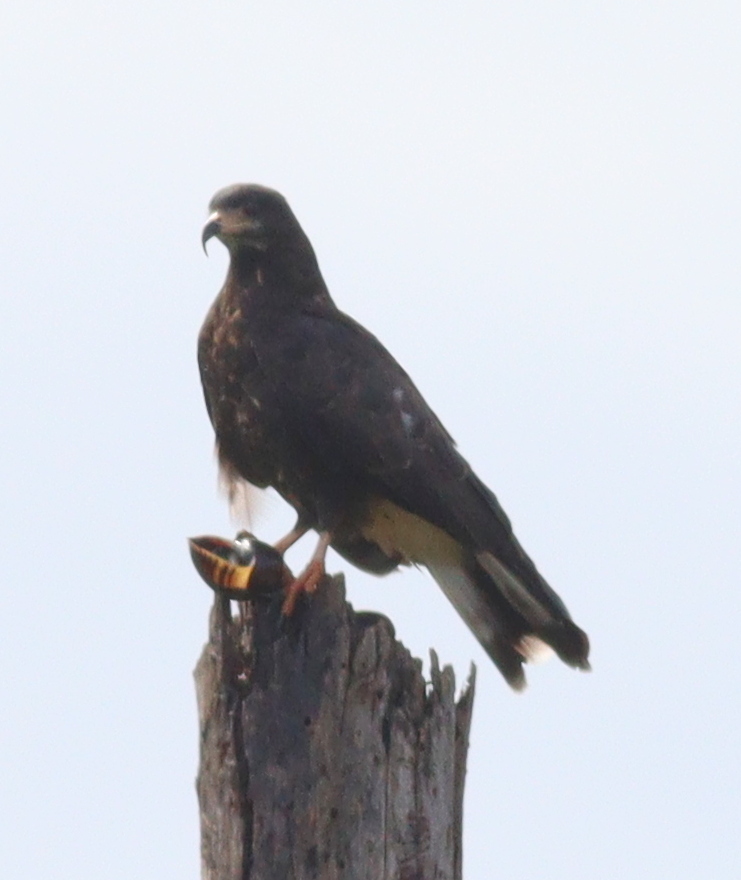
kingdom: Animalia
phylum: Chordata
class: Aves
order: Accipitriformes
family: Accipitridae
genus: Rostrhamus
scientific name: Rostrhamus sociabilis
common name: Snail kite
